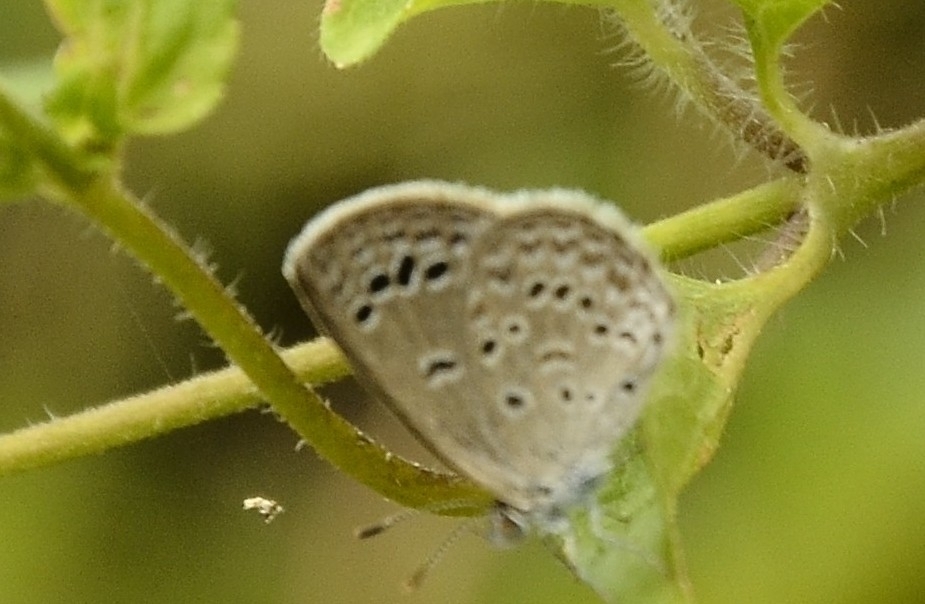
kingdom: Animalia
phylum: Arthropoda
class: Insecta
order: Lepidoptera
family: Lycaenidae
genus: Zizina
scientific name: Zizina otis
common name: Lesser grass blue
